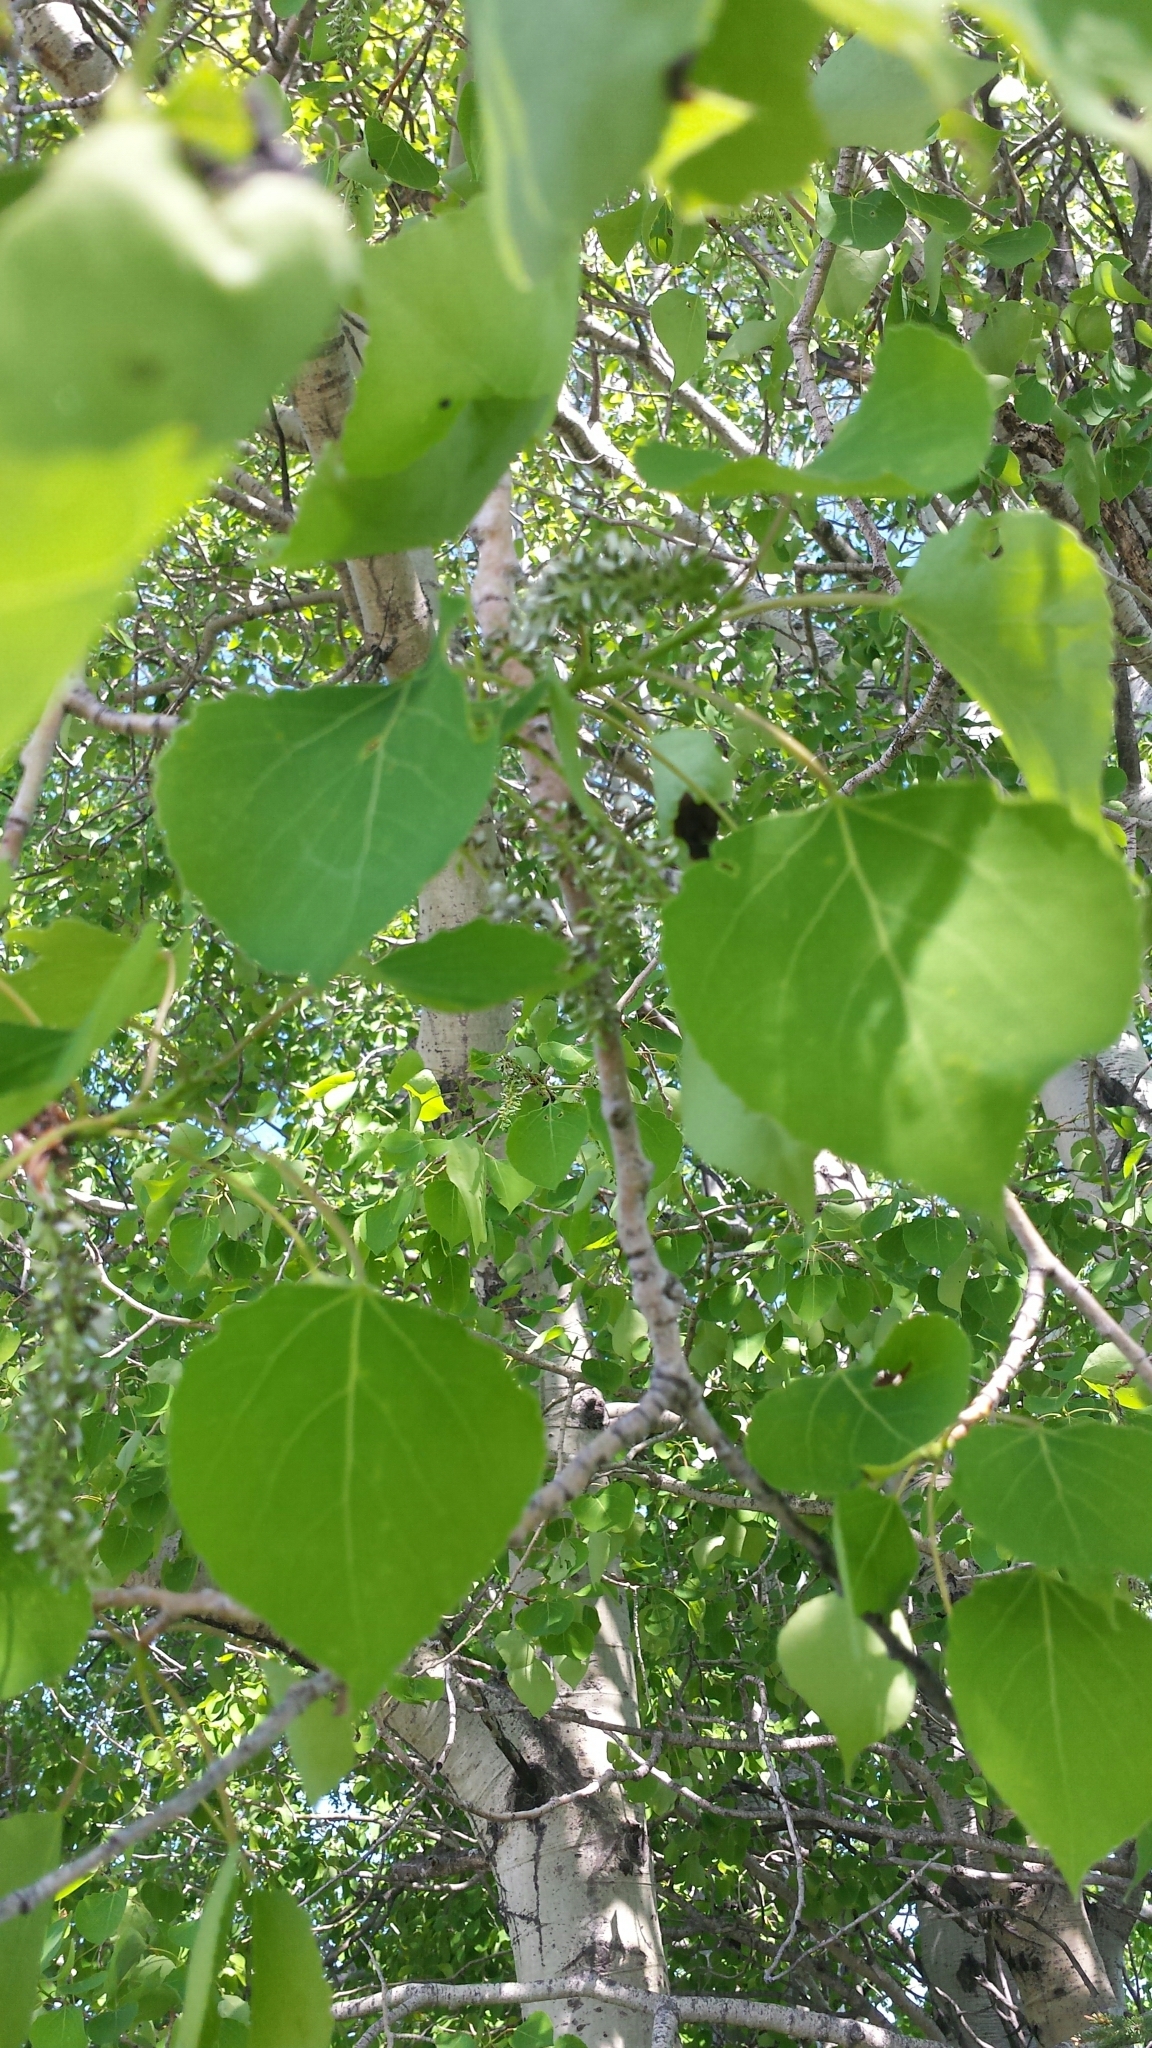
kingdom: Plantae
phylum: Tracheophyta
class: Magnoliopsida
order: Malpighiales
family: Salicaceae
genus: Populus
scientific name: Populus tremuloides
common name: Quaking aspen
